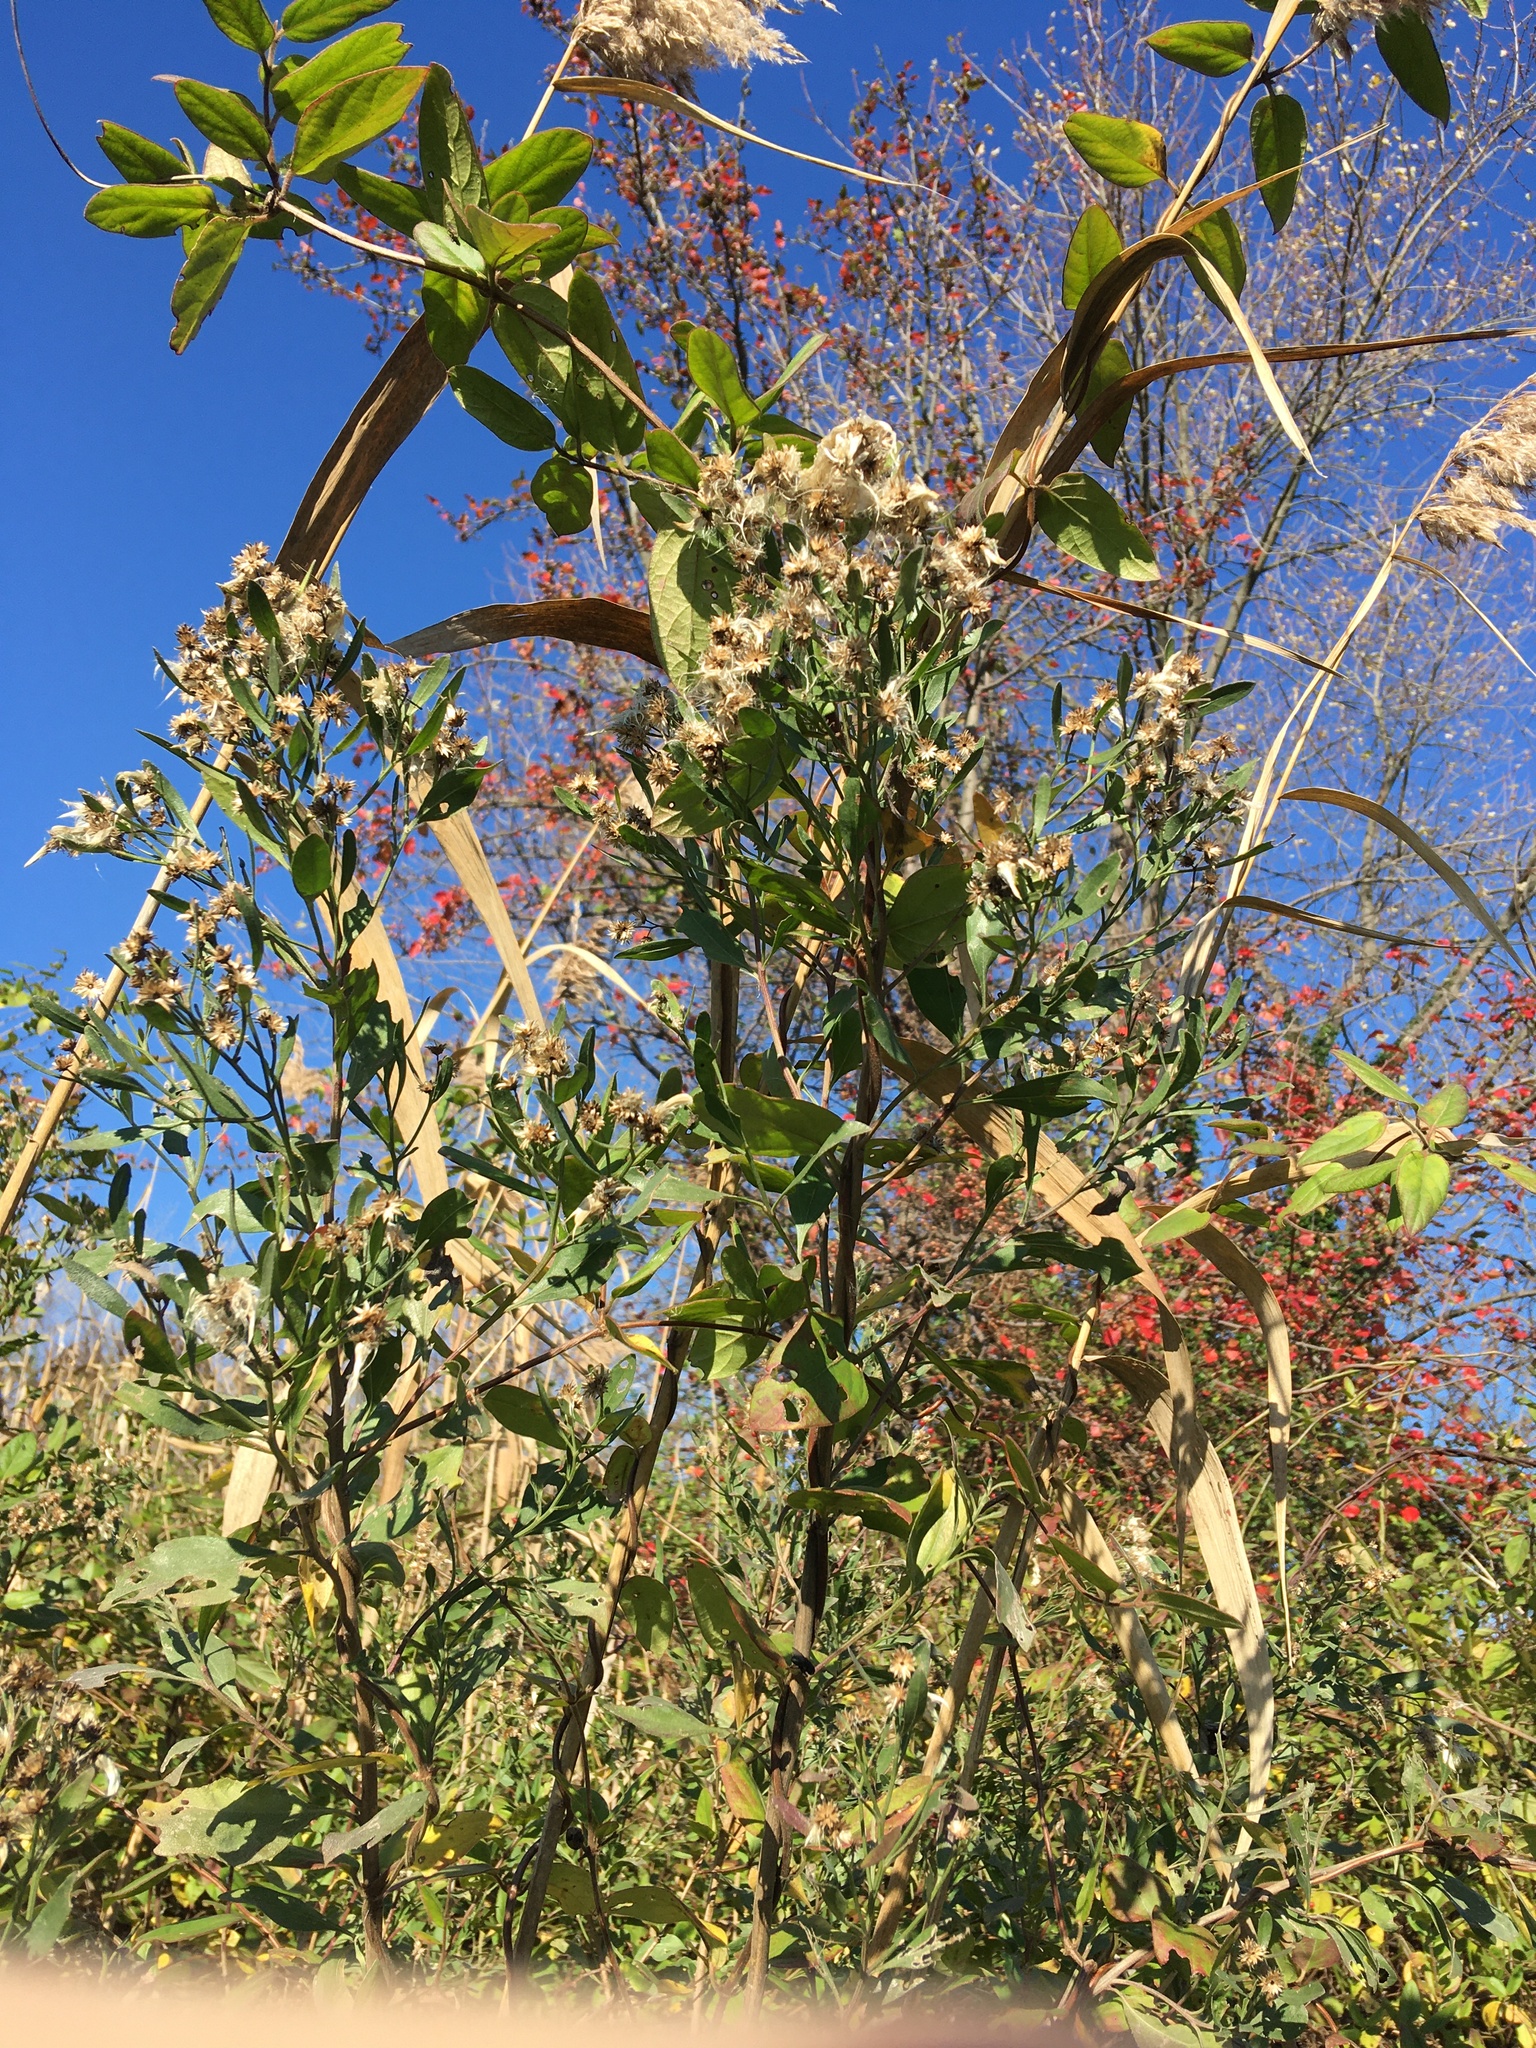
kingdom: Plantae
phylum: Tracheophyta
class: Magnoliopsida
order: Asterales
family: Asteraceae
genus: Baccharis
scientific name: Baccharis halimifolia
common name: Eastern baccharis
